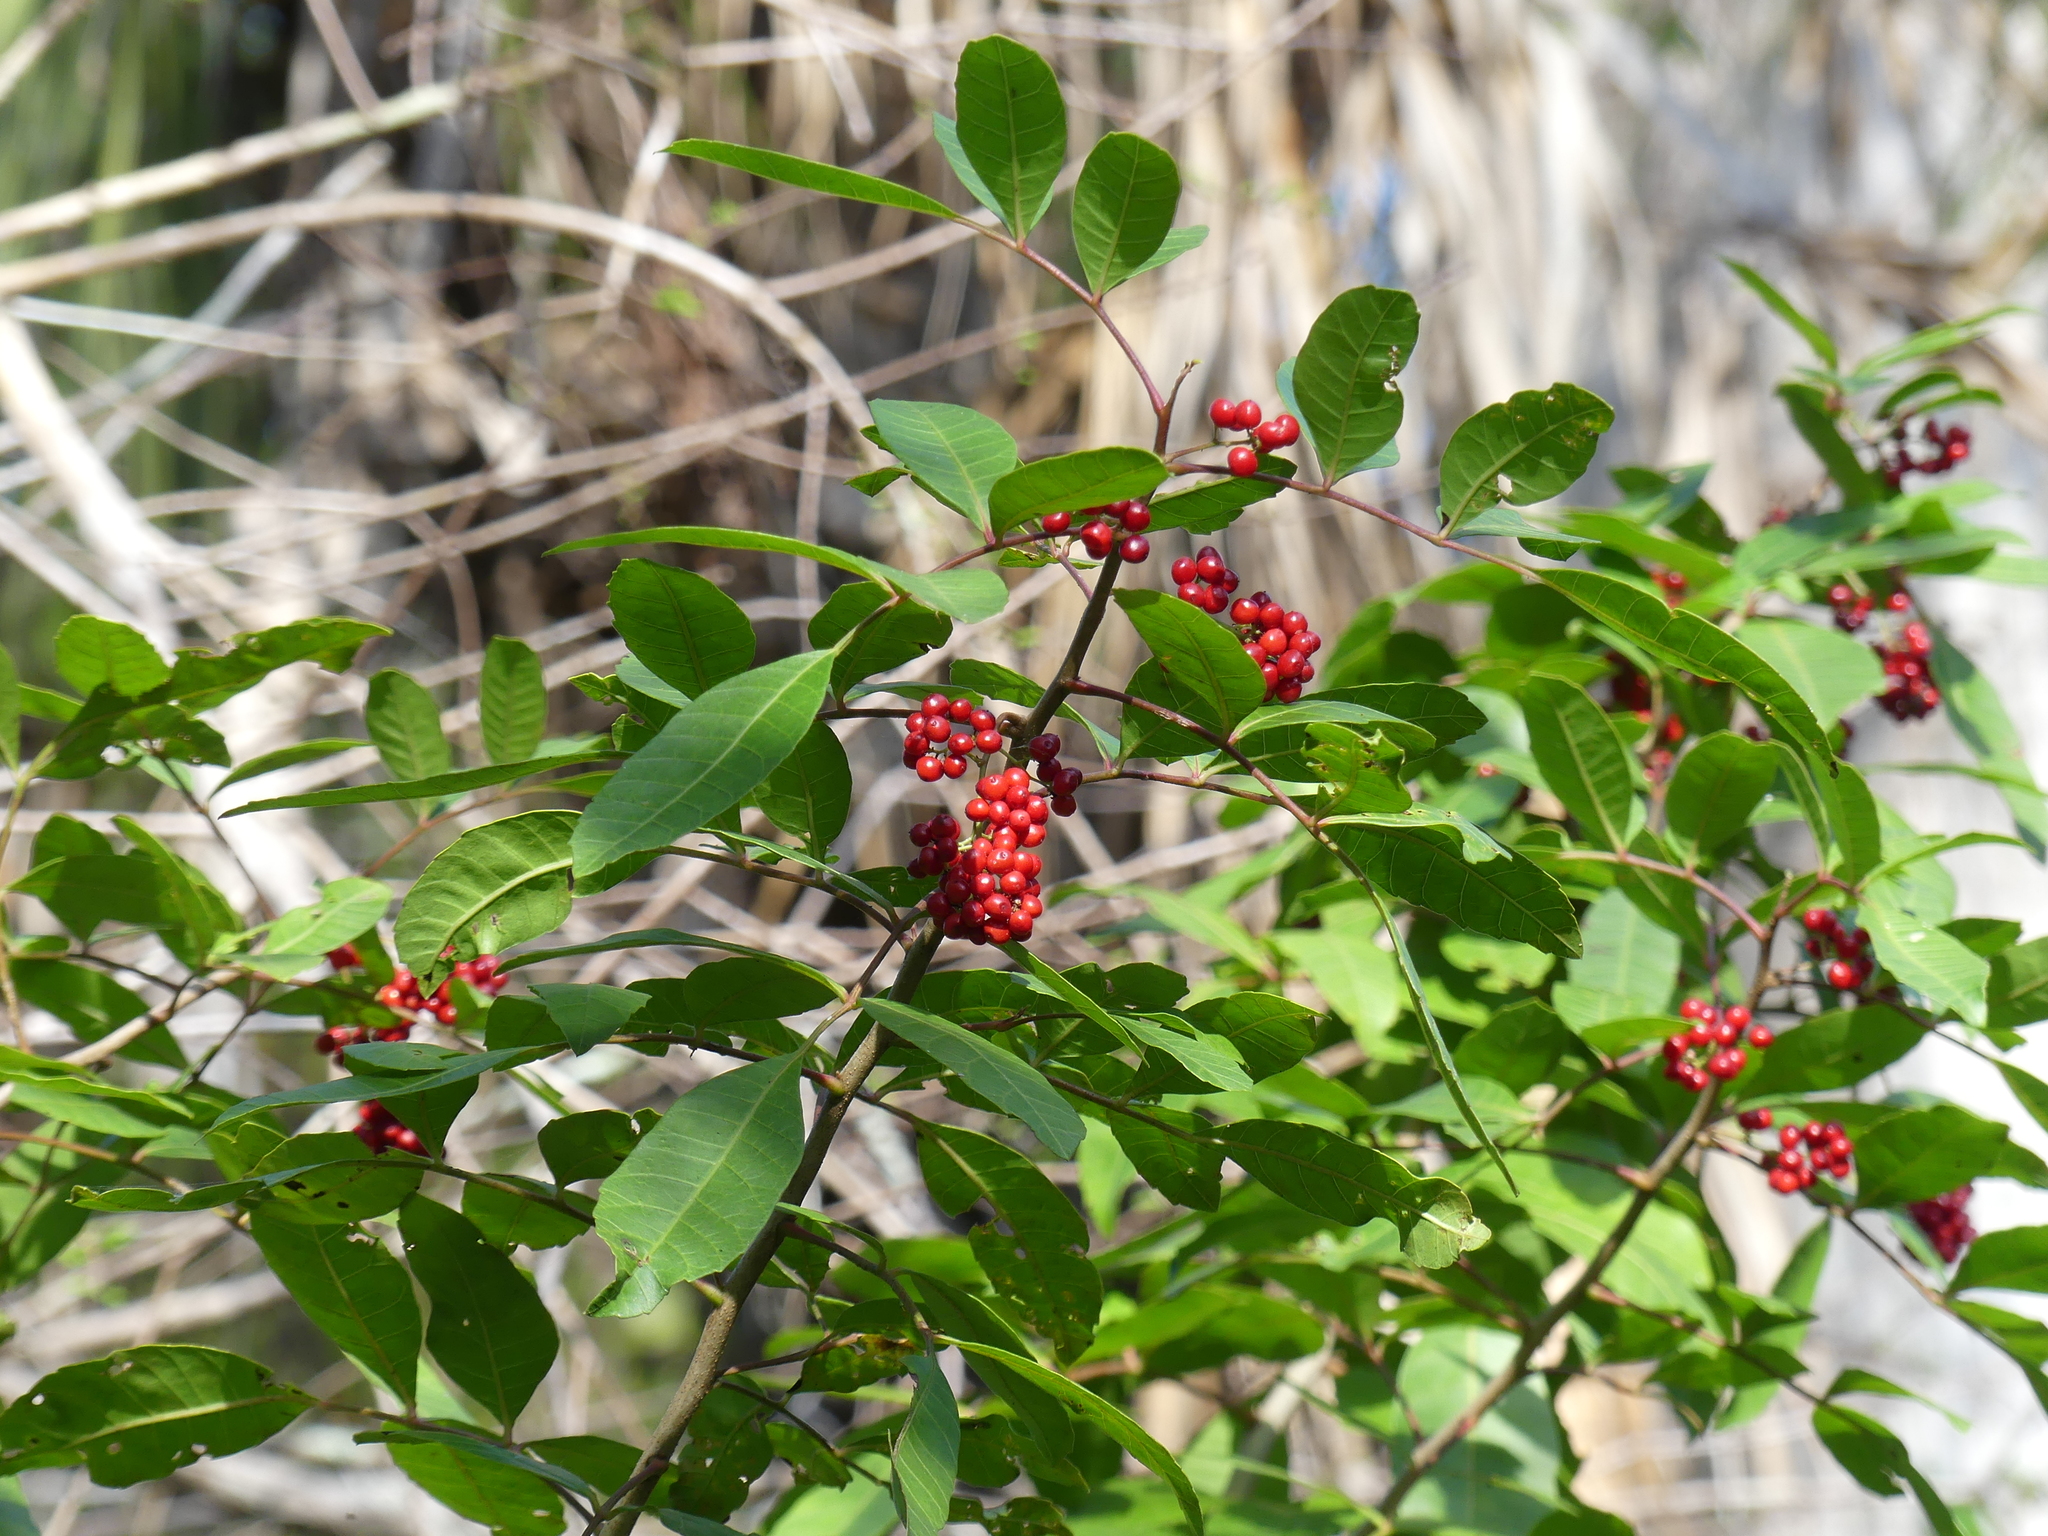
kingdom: Plantae
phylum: Tracheophyta
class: Magnoliopsida
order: Sapindales
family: Anacardiaceae
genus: Schinus
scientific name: Schinus terebinthifolia
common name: Brazilian peppertree
